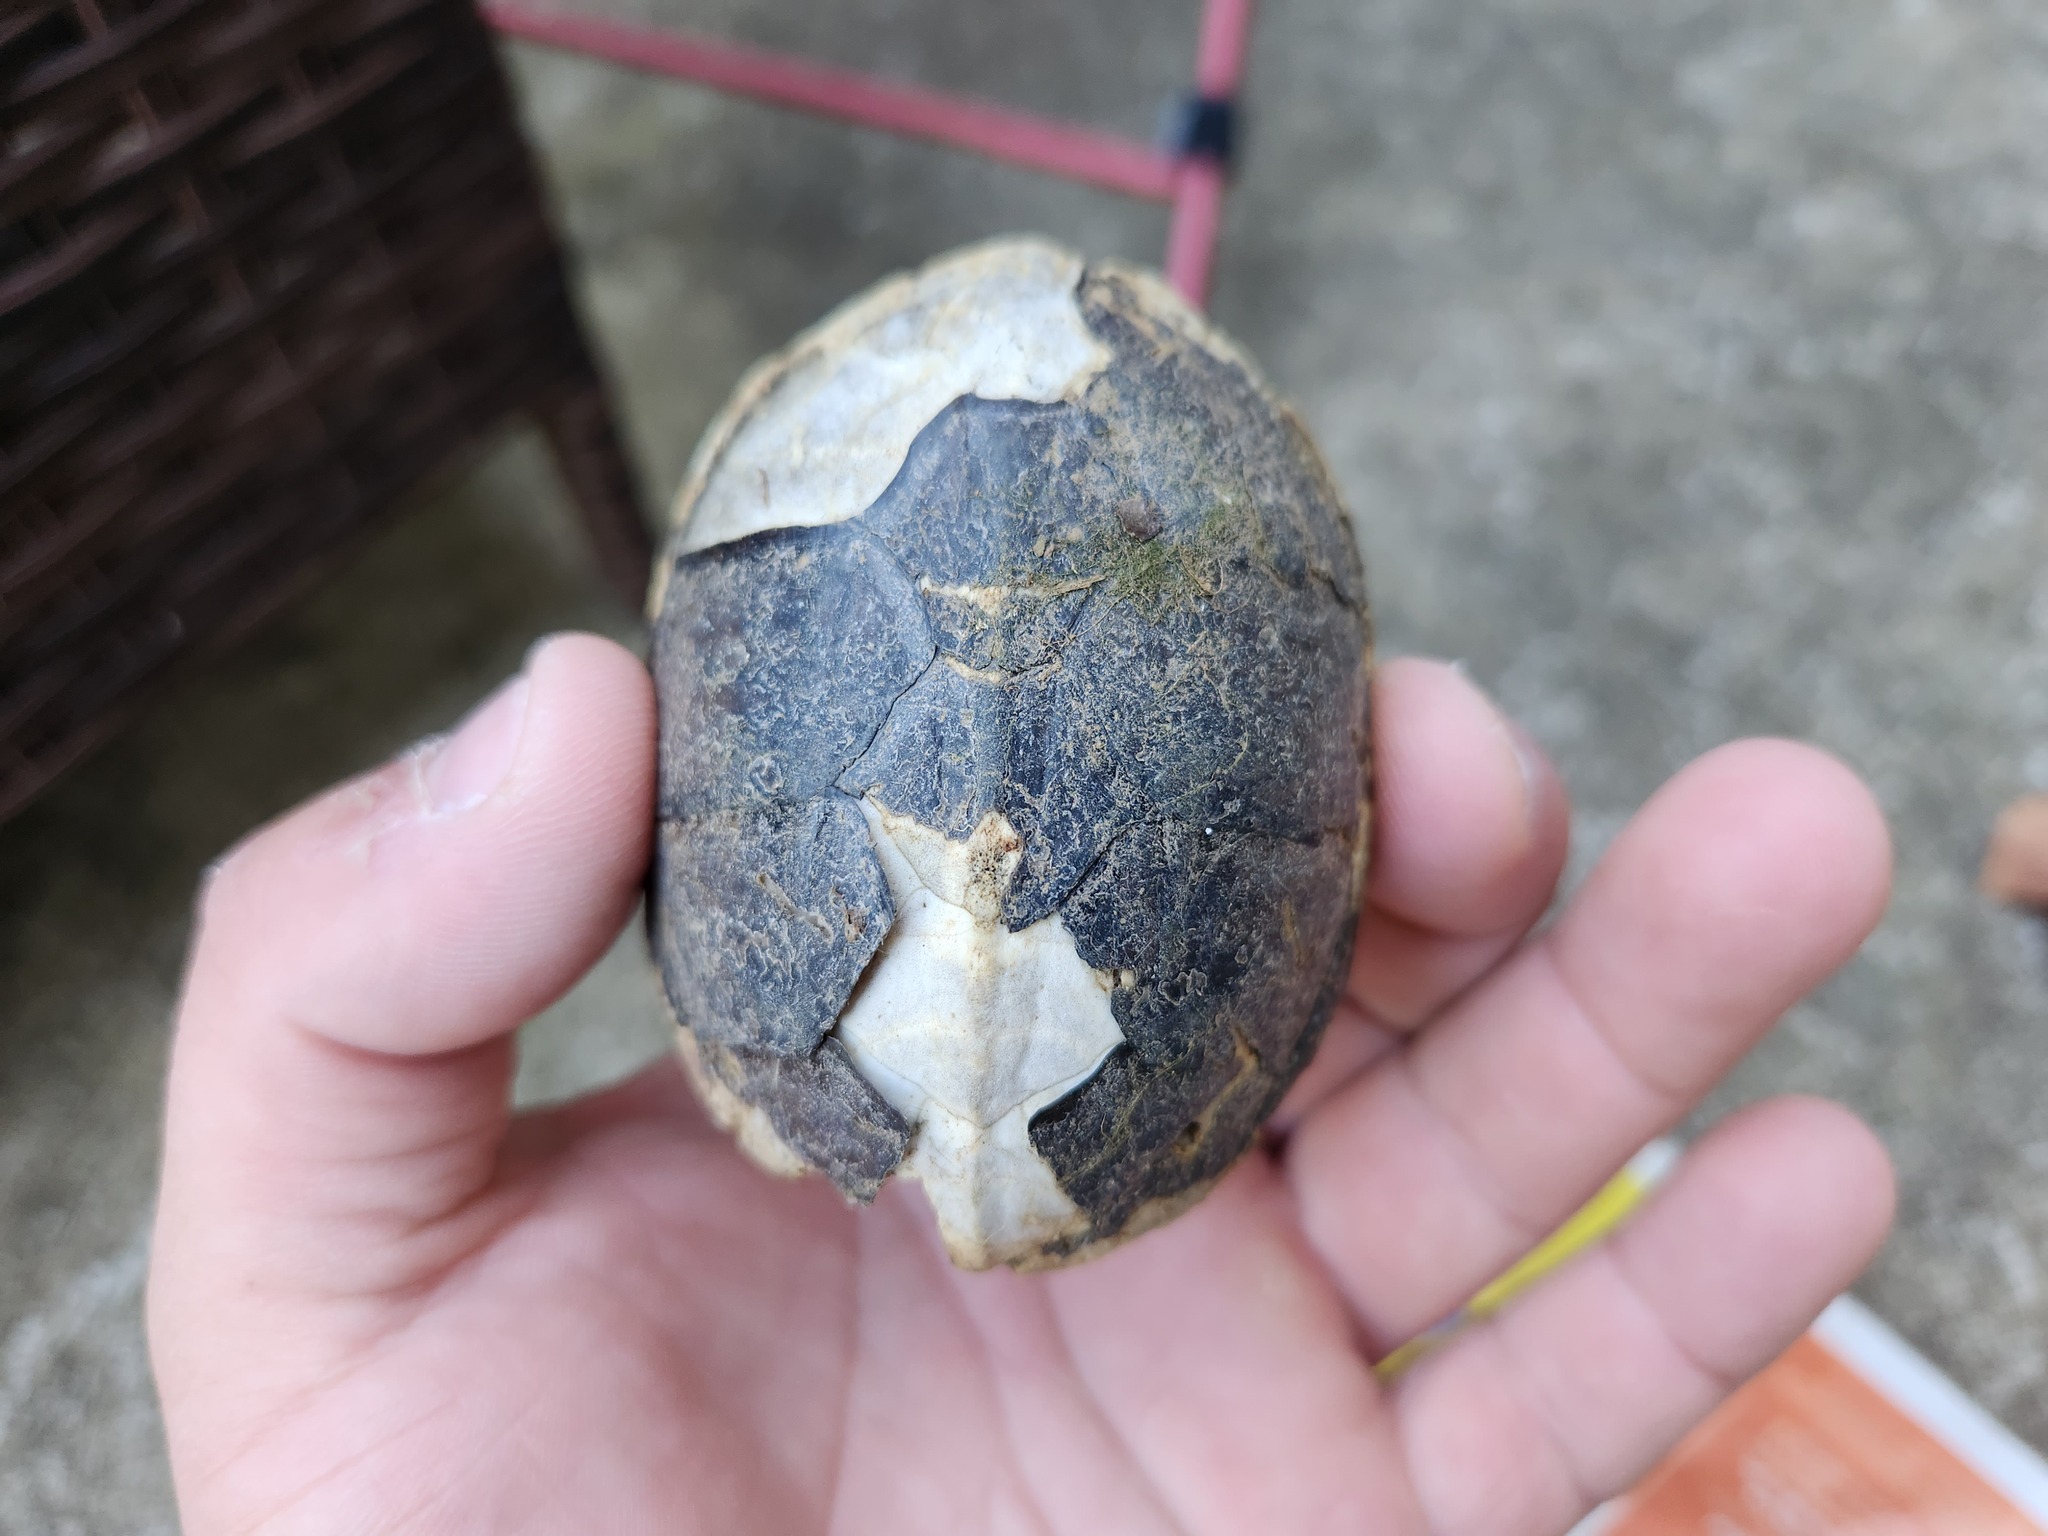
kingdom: Animalia
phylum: Chordata
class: Testudines
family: Kinosternidae
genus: Sternotherus
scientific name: Sternotherus odoratus
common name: Common musk turtle
